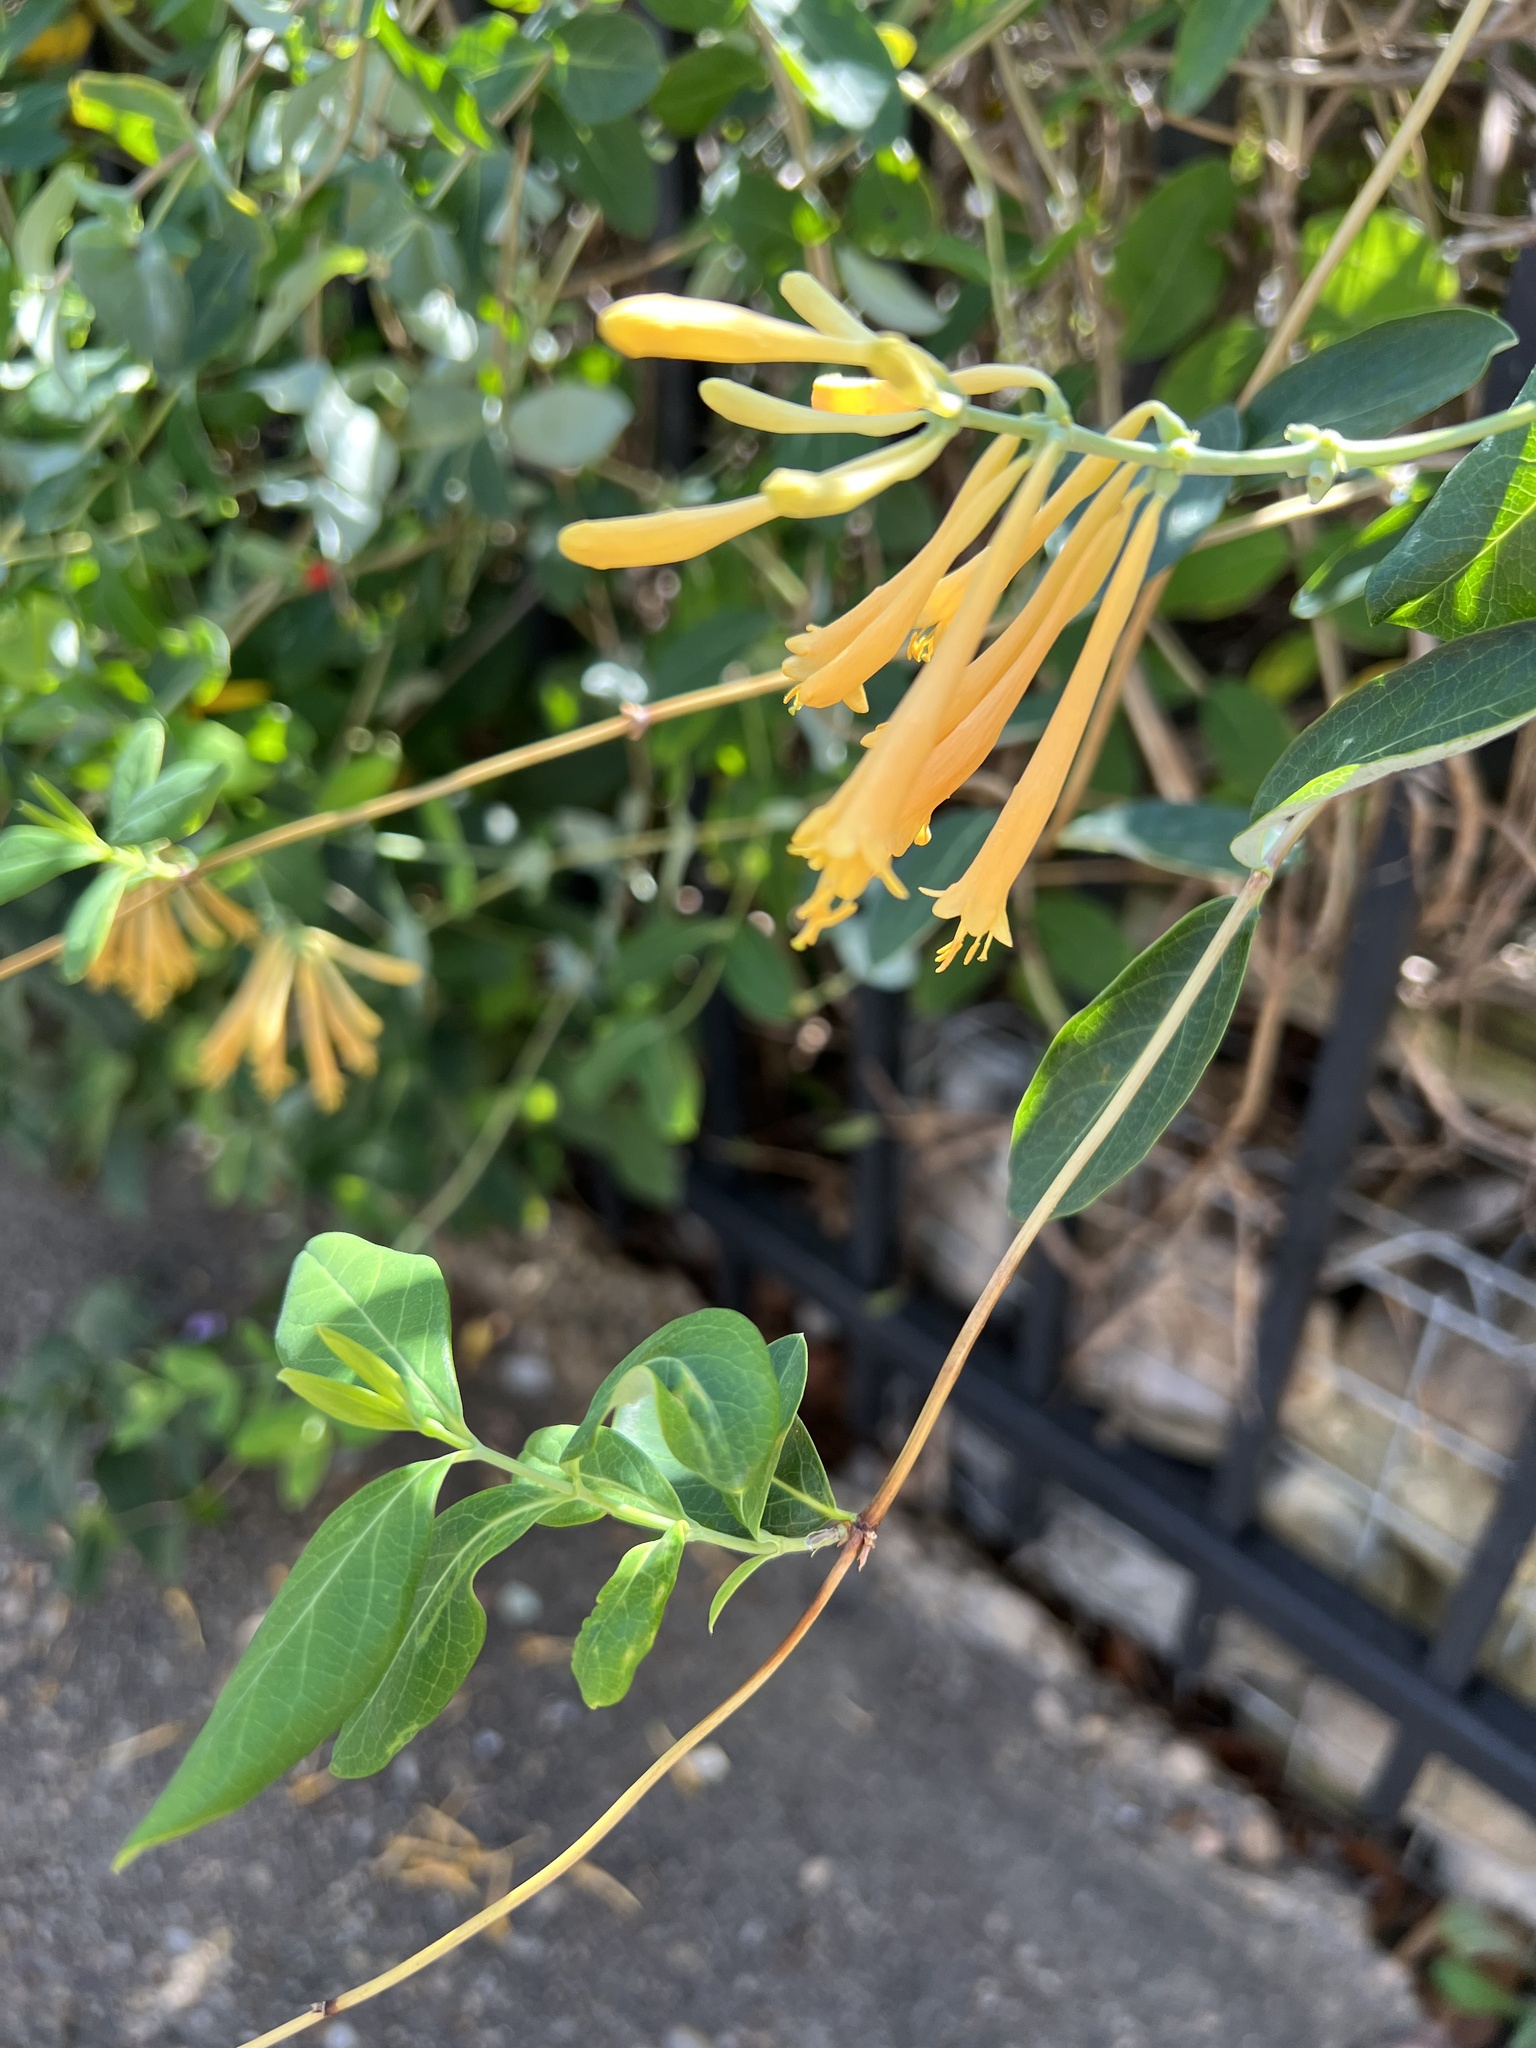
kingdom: Plantae
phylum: Tracheophyta
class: Magnoliopsida
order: Dipsacales
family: Caprifoliaceae
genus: Lonicera
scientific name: Lonicera sempervirens
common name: Coral honeysuckle
